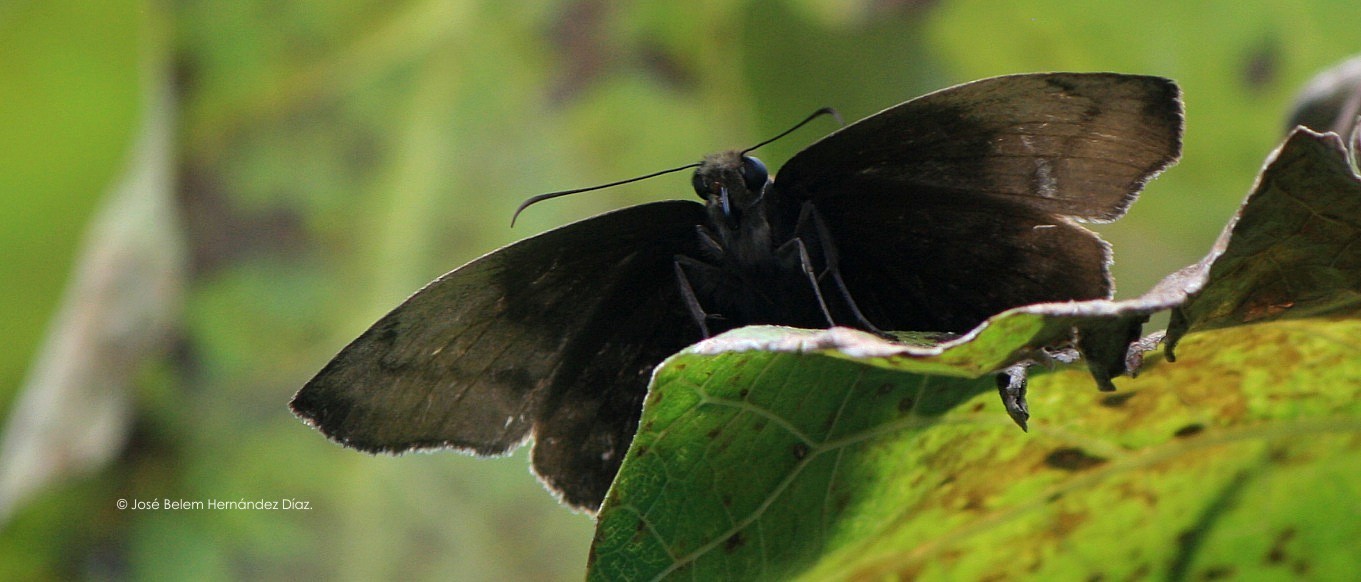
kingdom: Animalia
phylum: Arthropoda
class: Insecta
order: Lepidoptera
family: Hesperiidae
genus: Achlyodes
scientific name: Achlyodes pallida
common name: Pale sicklewing
